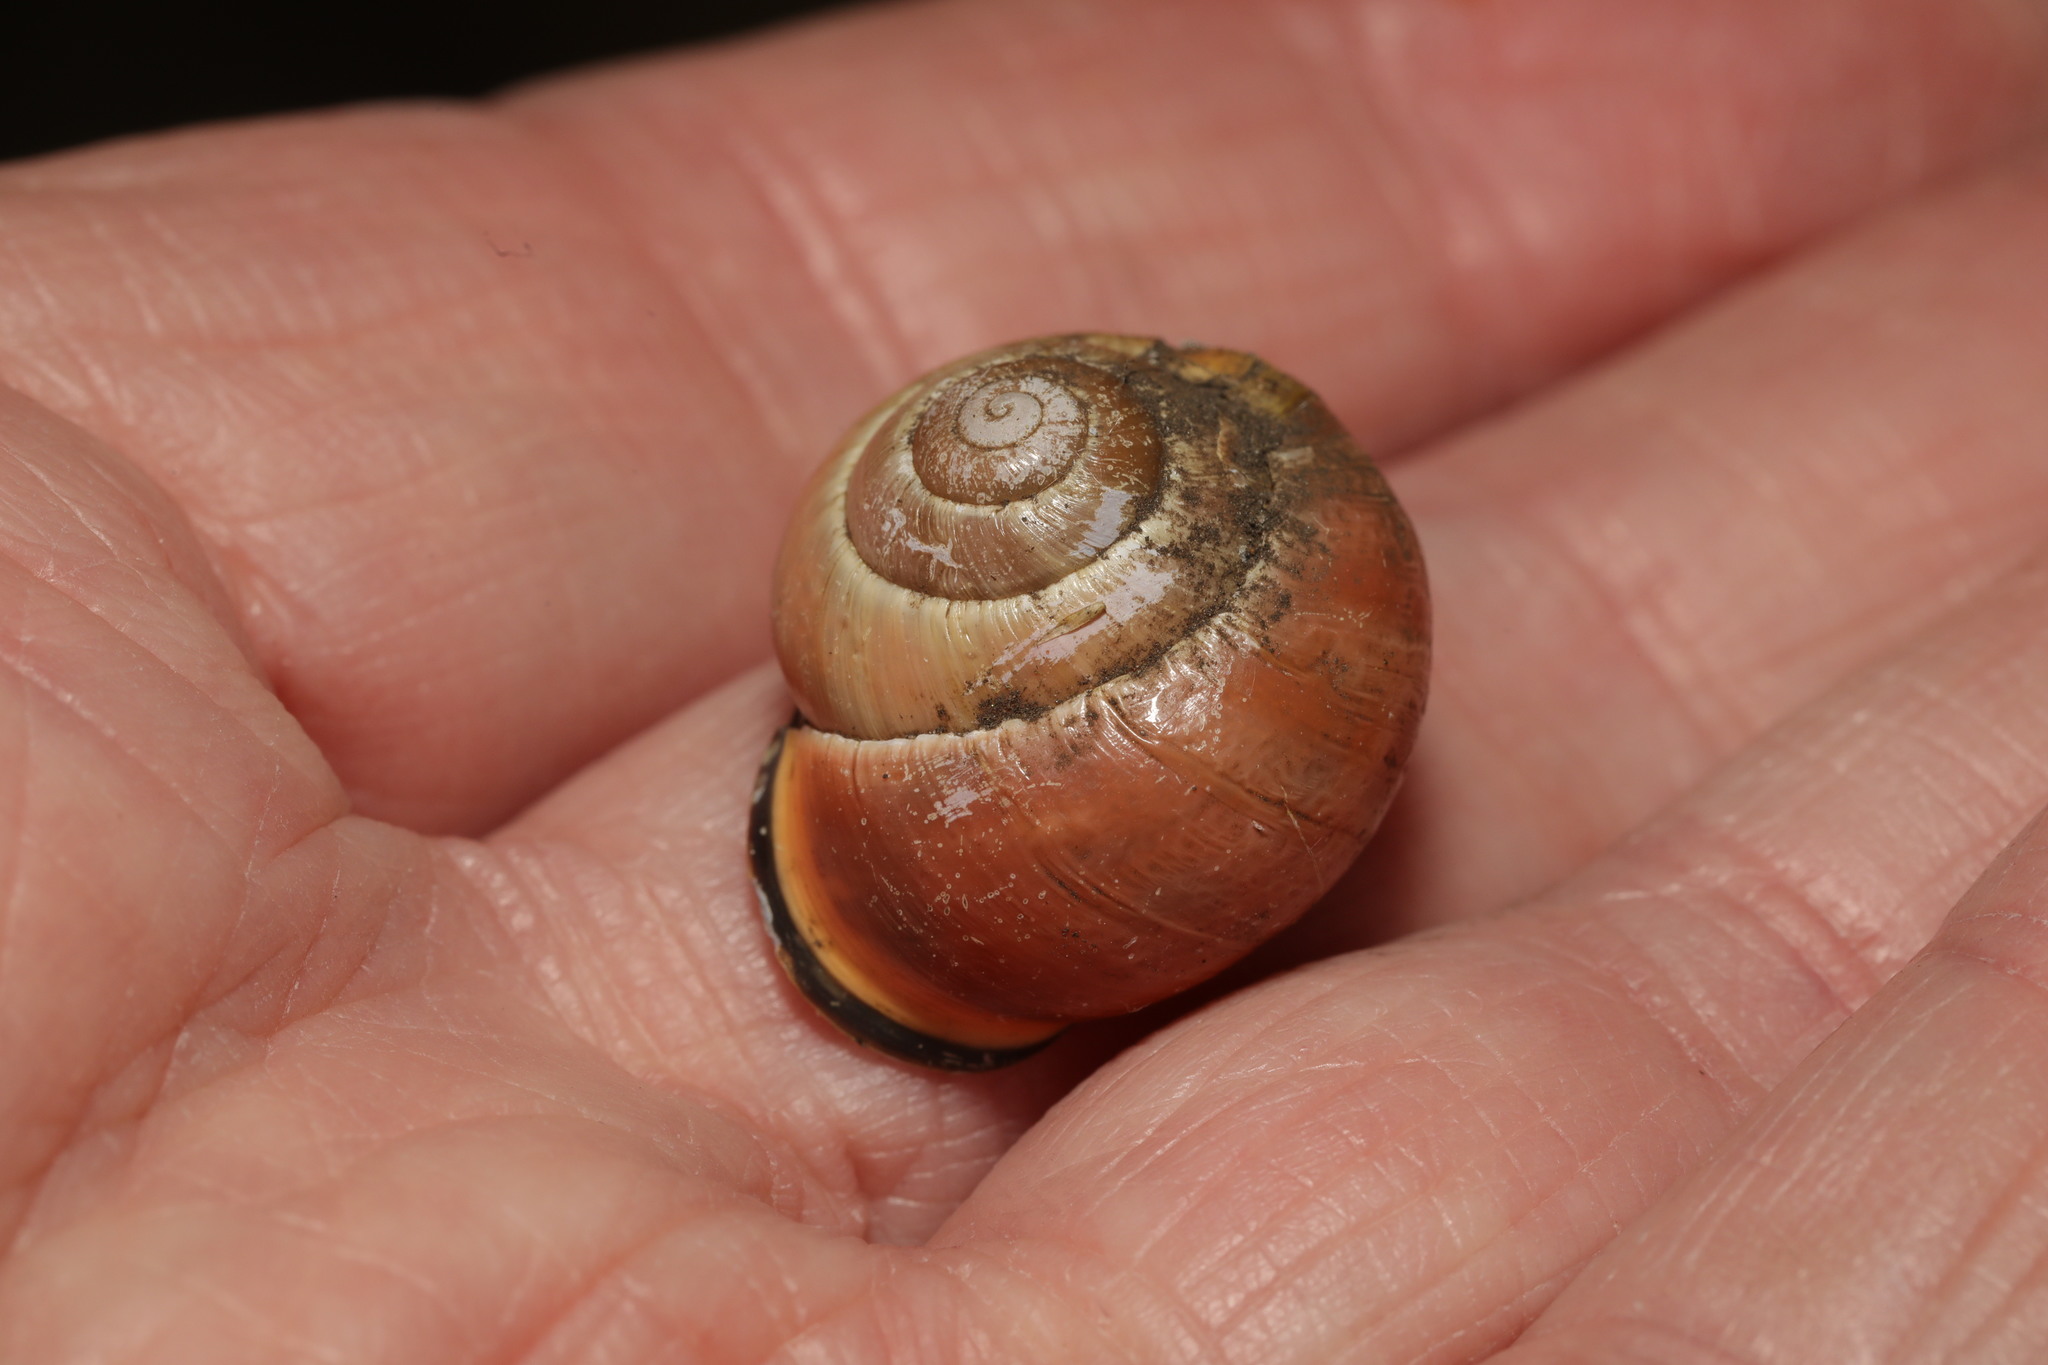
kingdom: Animalia
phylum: Mollusca
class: Gastropoda
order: Stylommatophora
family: Helicidae
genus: Cepaea
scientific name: Cepaea nemoralis
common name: Grovesnail
